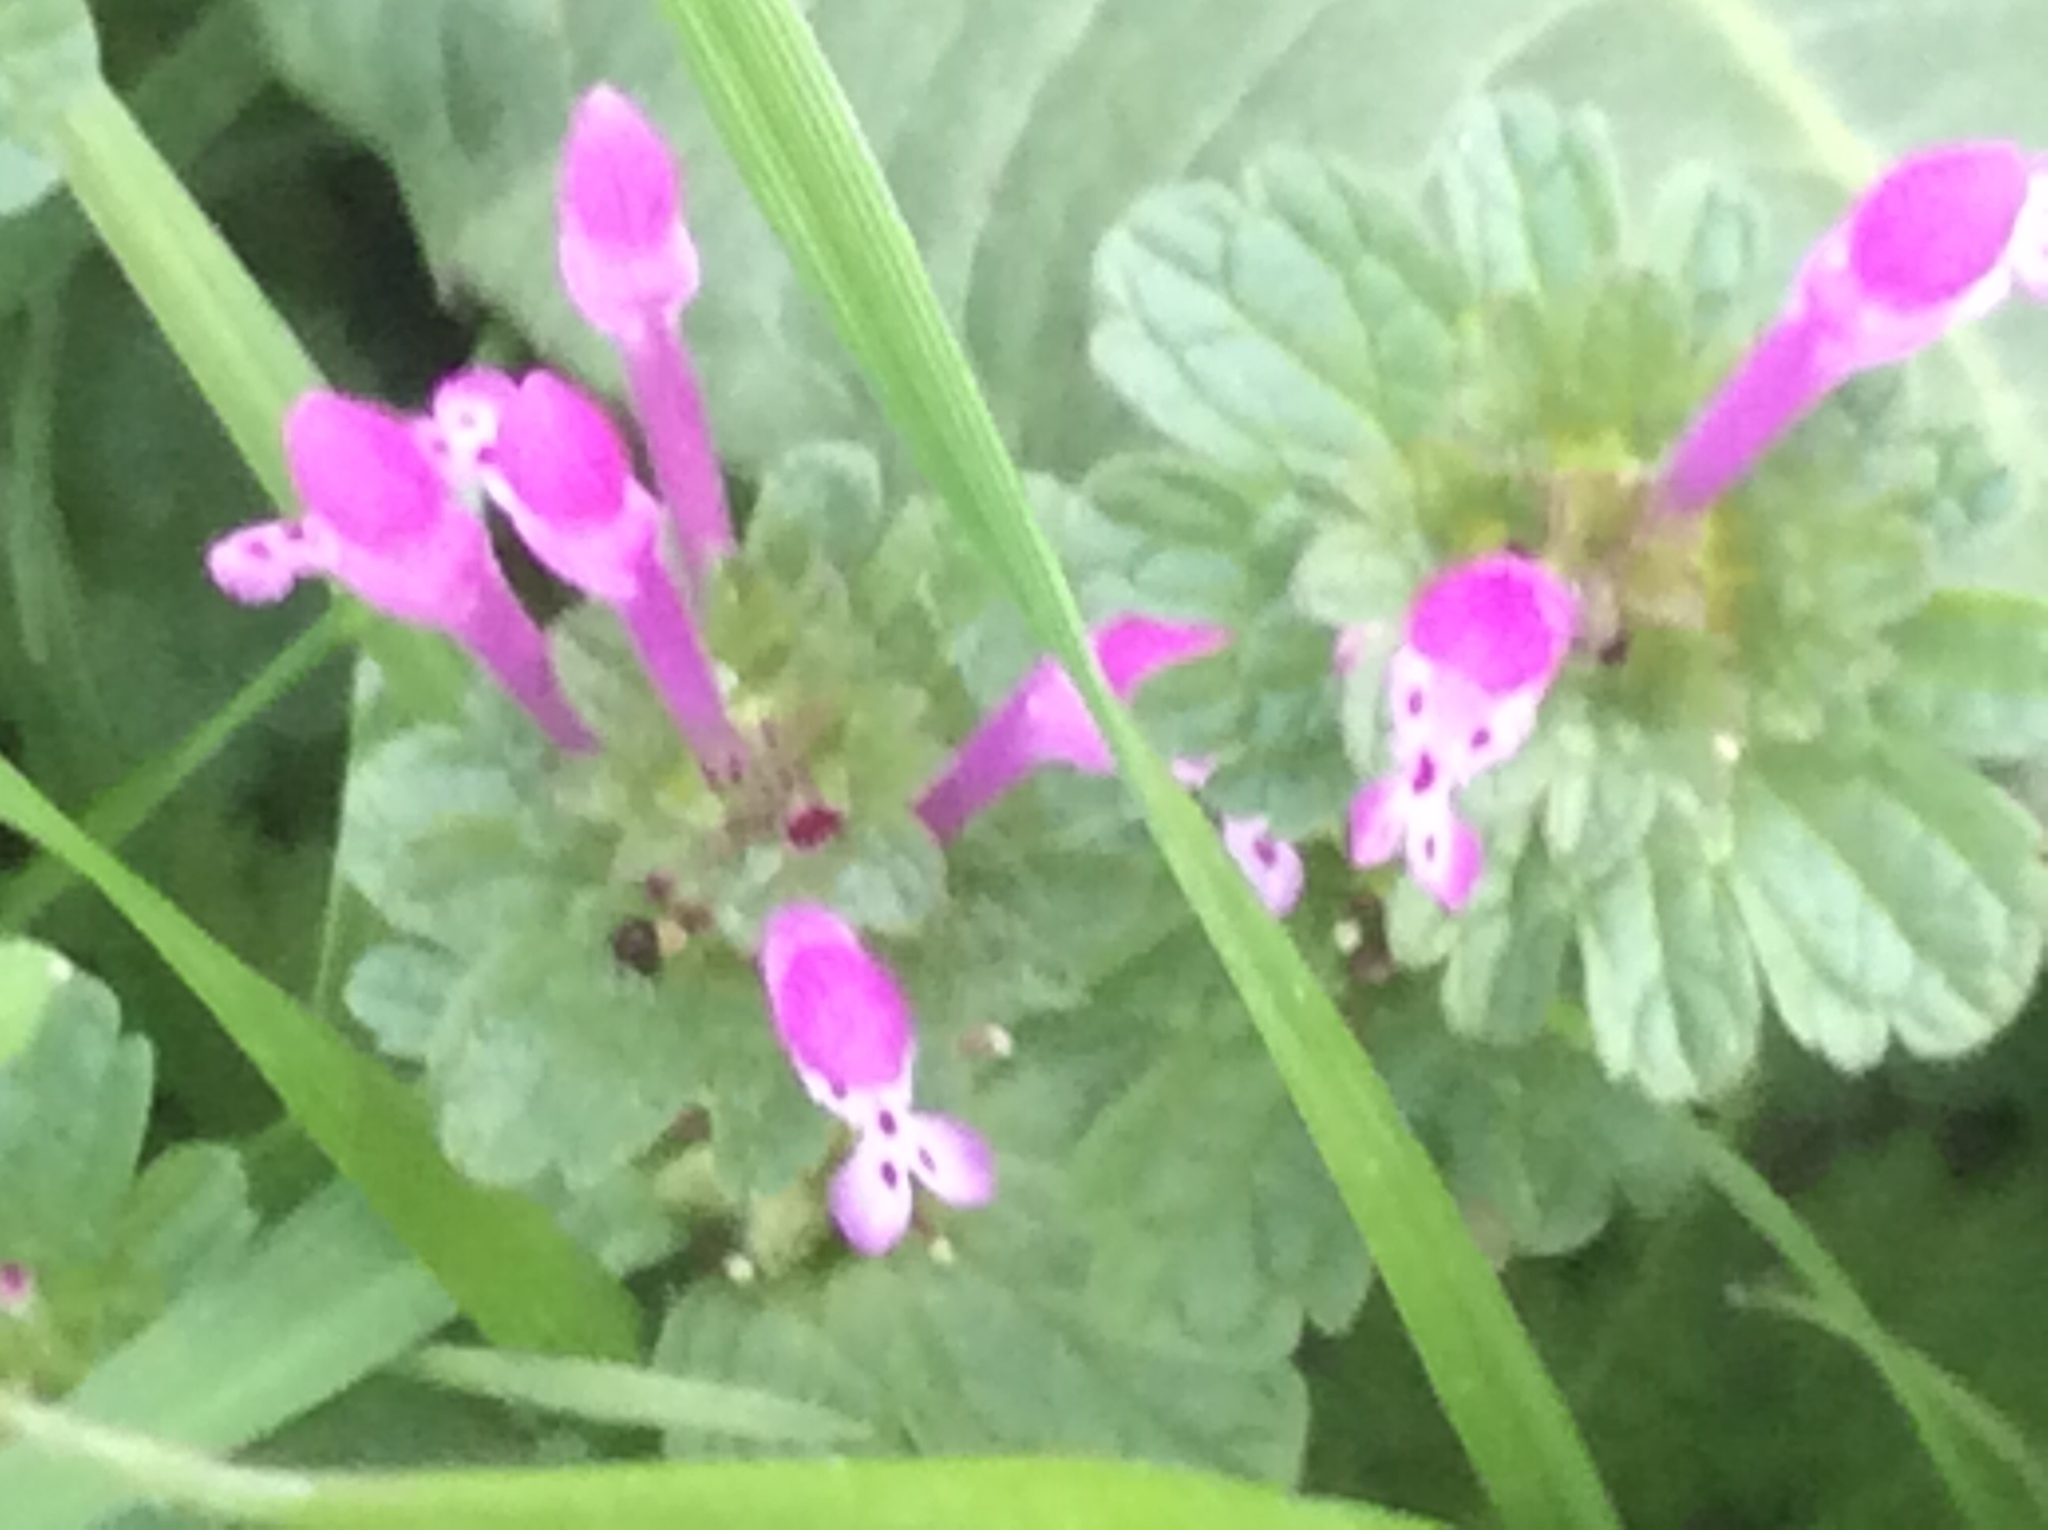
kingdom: Plantae
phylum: Tracheophyta
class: Magnoliopsida
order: Lamiales
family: Lamiaceae
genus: Lamium
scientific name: Lamium amplexicaule
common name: Henbit dead-nettle
